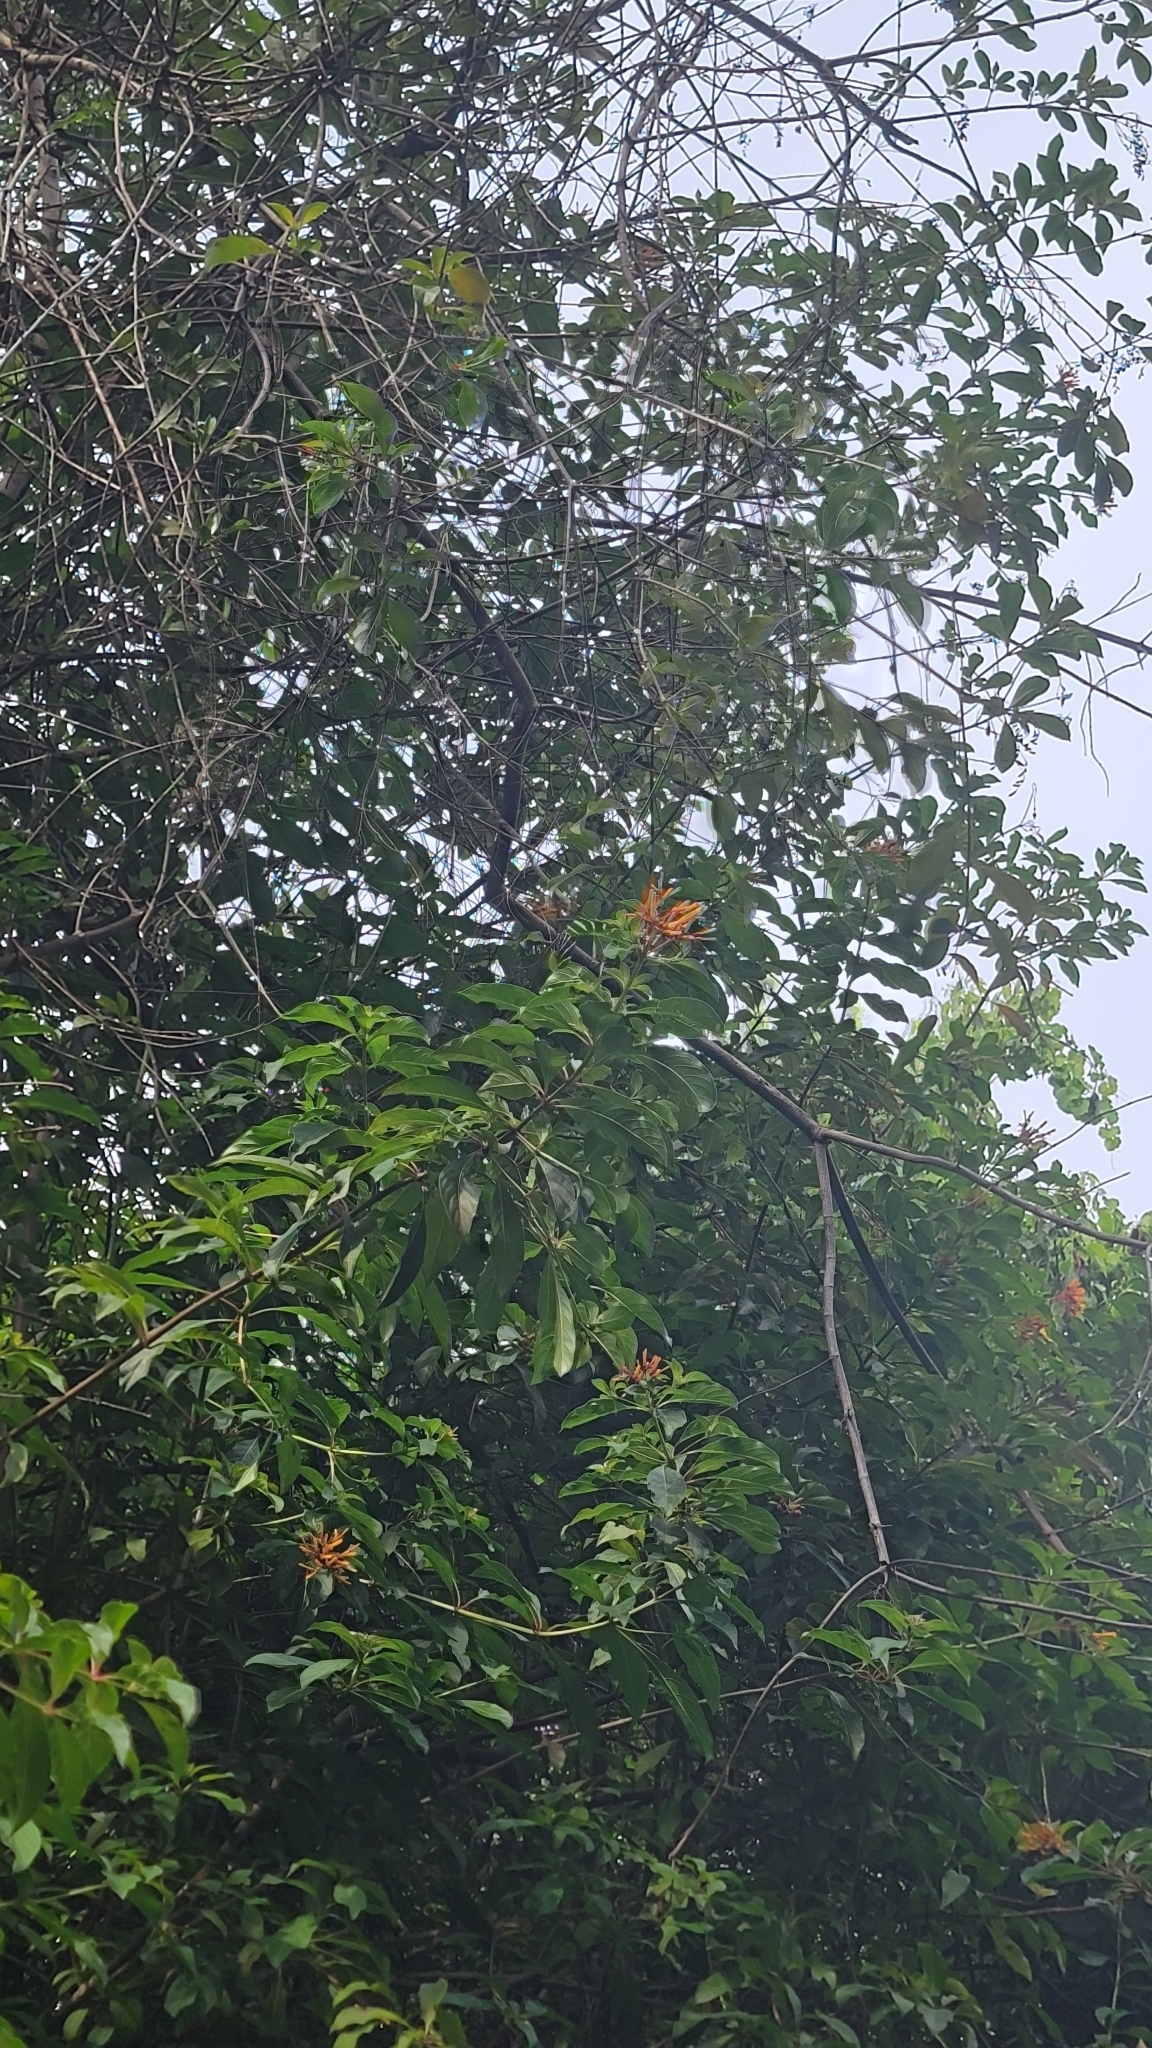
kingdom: Plantae
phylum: Tracheophyta
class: Magnoliopsida
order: Gentianales
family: Rubiaceae
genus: Hamelia
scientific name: Hamelia patens
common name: Redhead
